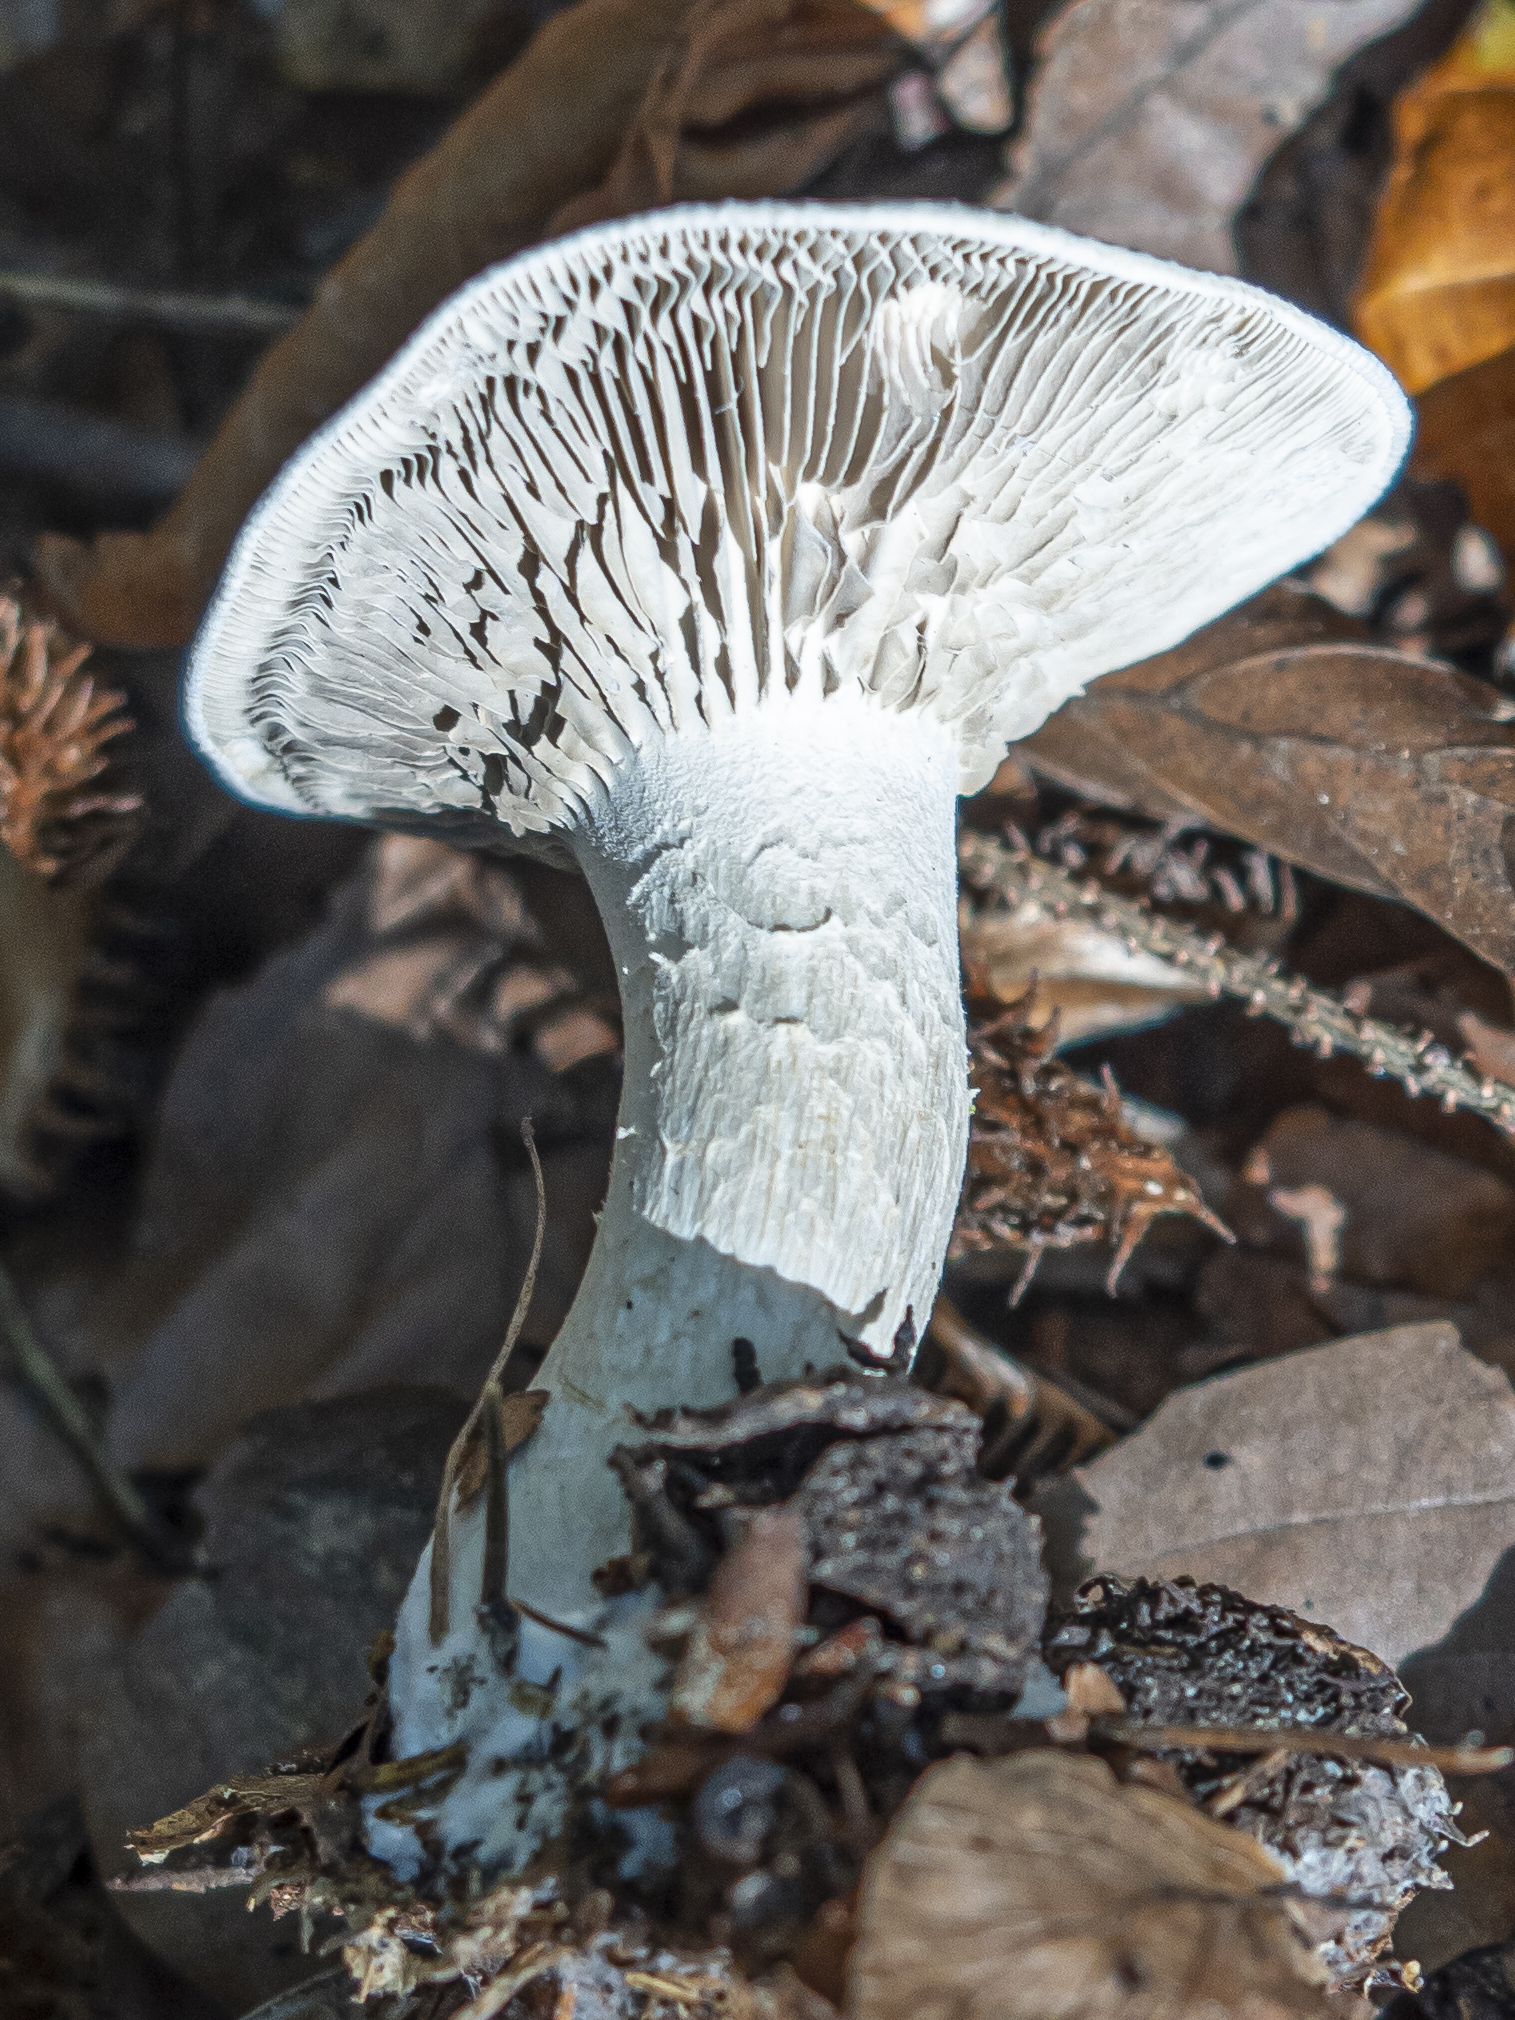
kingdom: Fungi
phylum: Basidiomycota
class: Agaricomycetes
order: Agaricales
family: Tricholomataceae
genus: Atractosporocybe
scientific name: Atractosporocybe inornata
